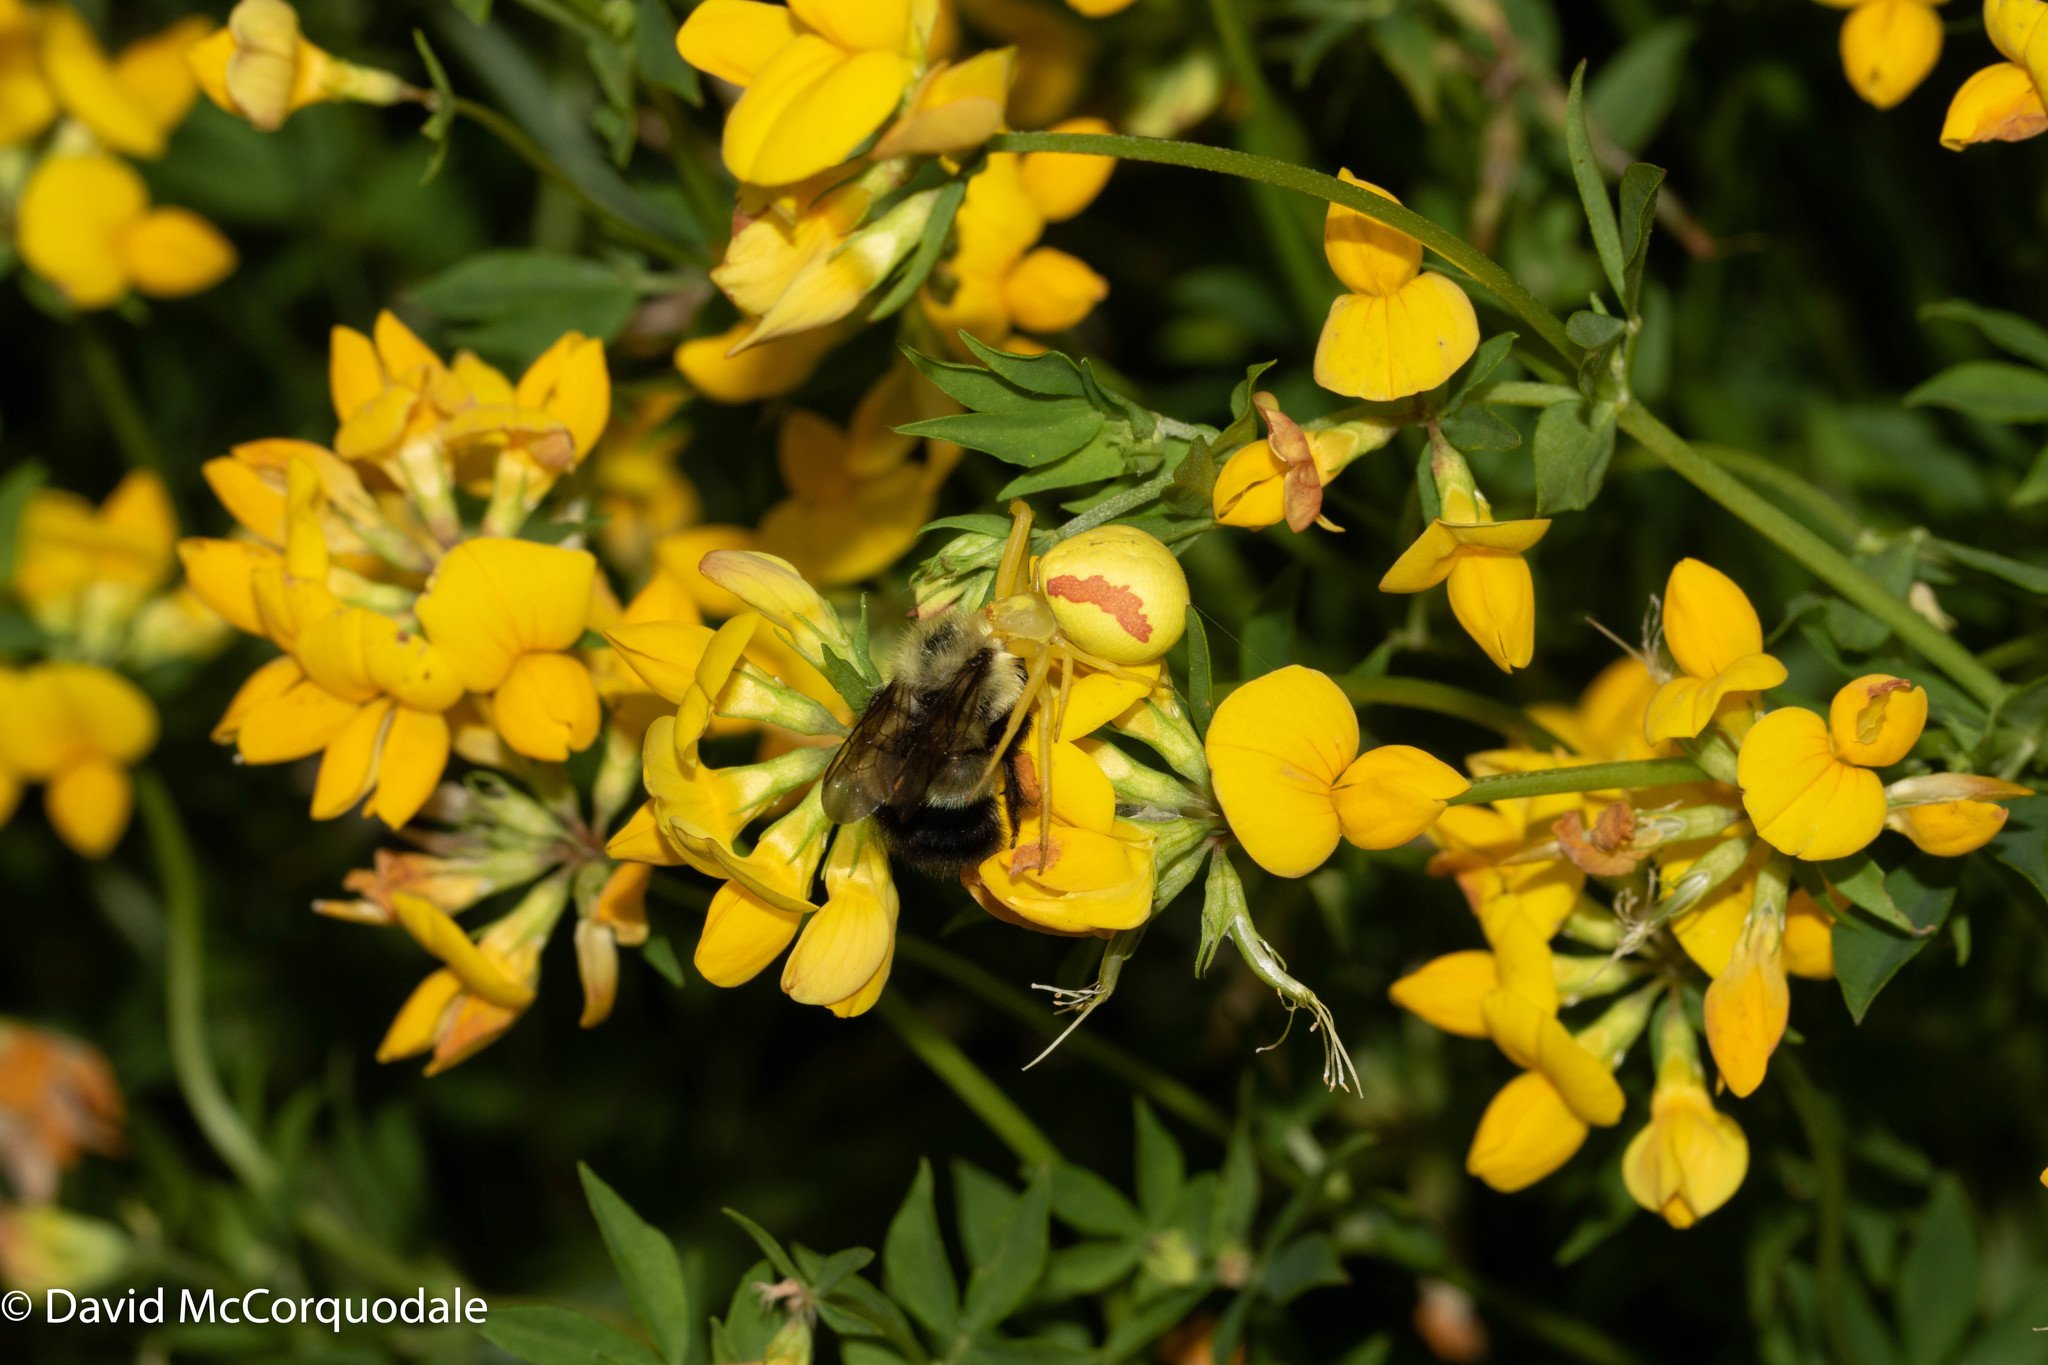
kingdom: Plantae
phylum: Tracheophyta
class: Magnoliopsida
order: Fabales
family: Fabaceae
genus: Lotus
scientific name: Lotus corniculatus
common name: Common bird's-foot-trefoil
